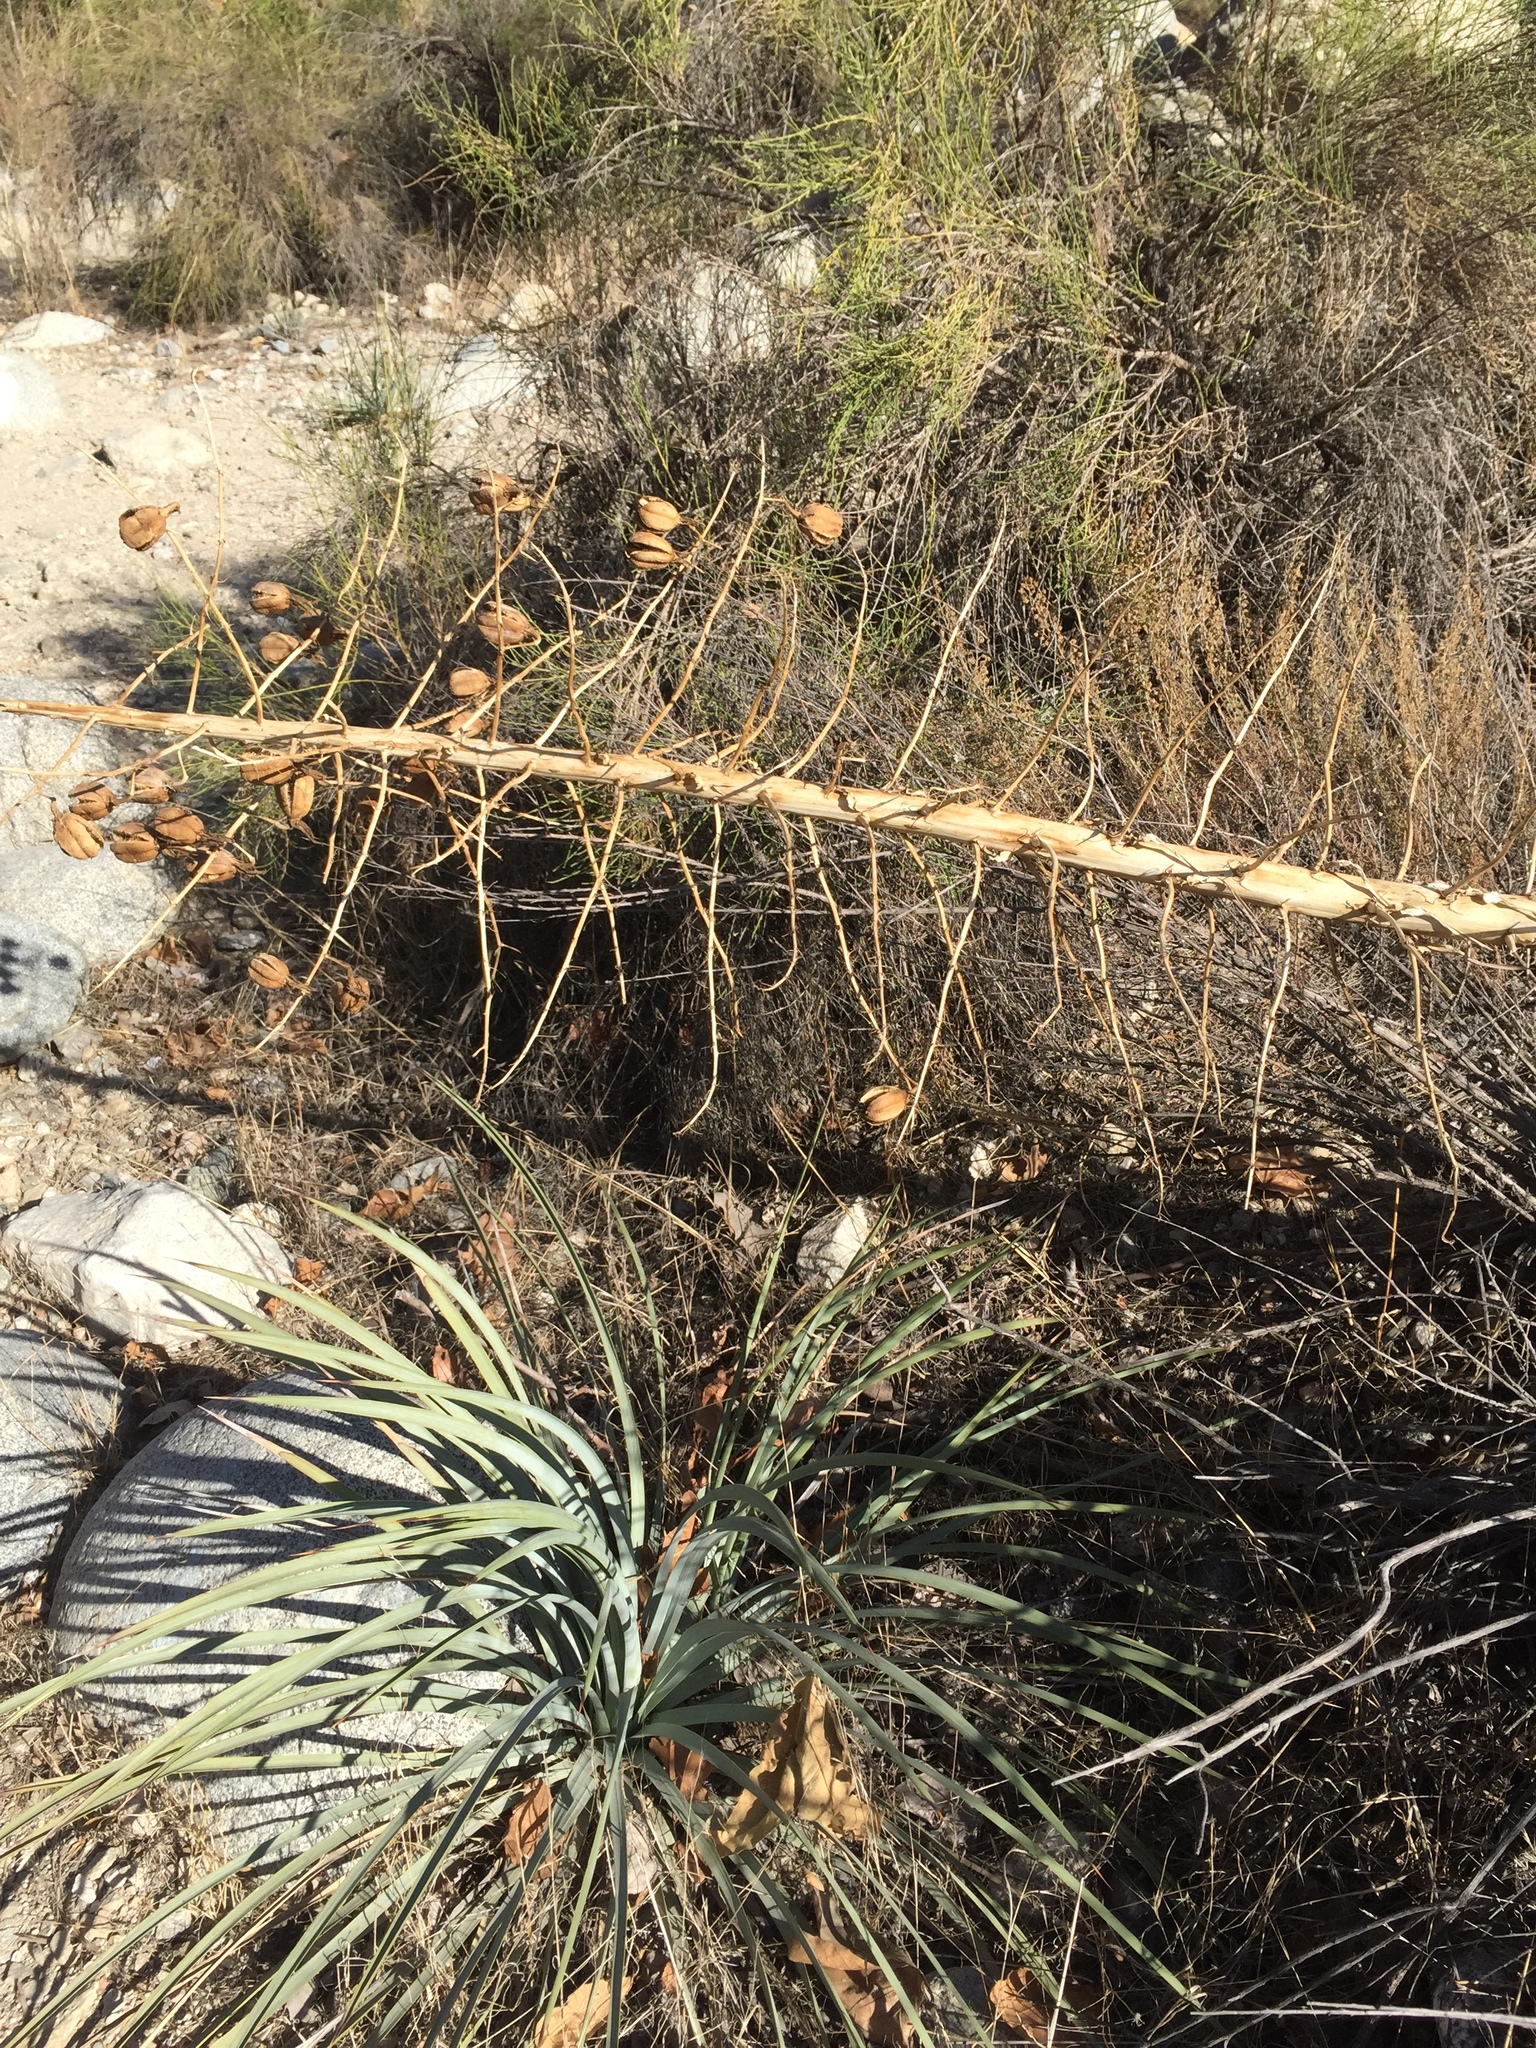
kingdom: Plantae
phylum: Tracheophyta
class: Liliopsida
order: Asparagales
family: Asparagaceae
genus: Hesperoyucca
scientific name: Hesperoyucca whipplei
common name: Our lord's-candle
